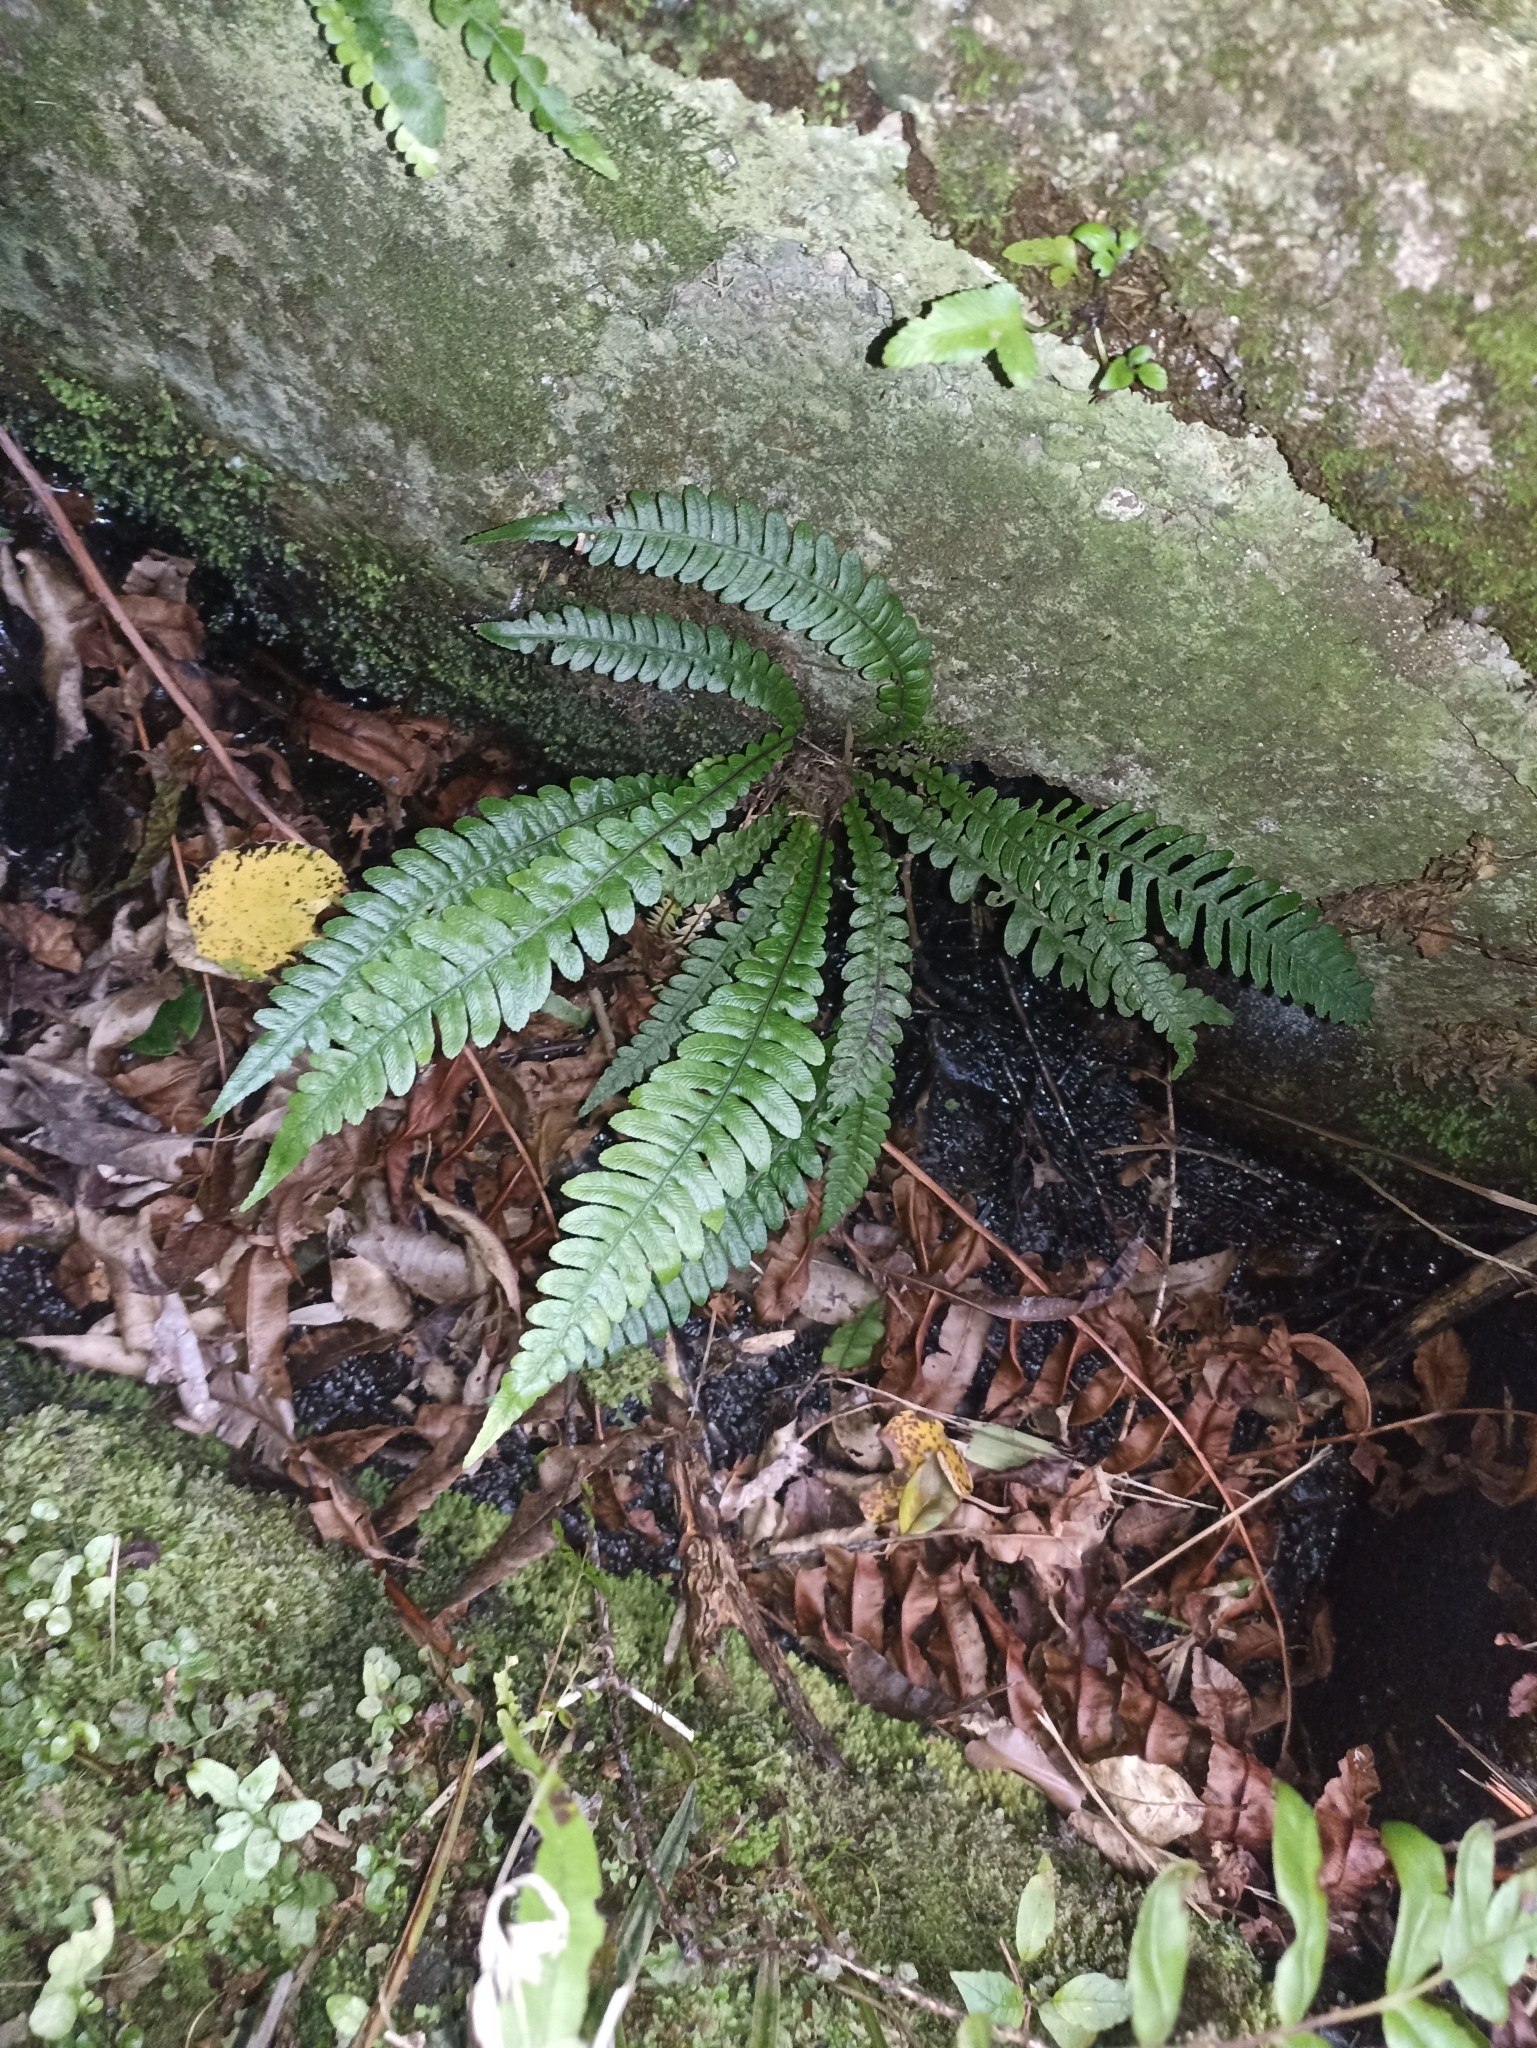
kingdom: Plantae
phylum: Tracheophyta
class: Polypodiopsida
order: Polypodiales
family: Blechnaceae
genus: Austroblechnum
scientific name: Austroblechnum lanceolatum
